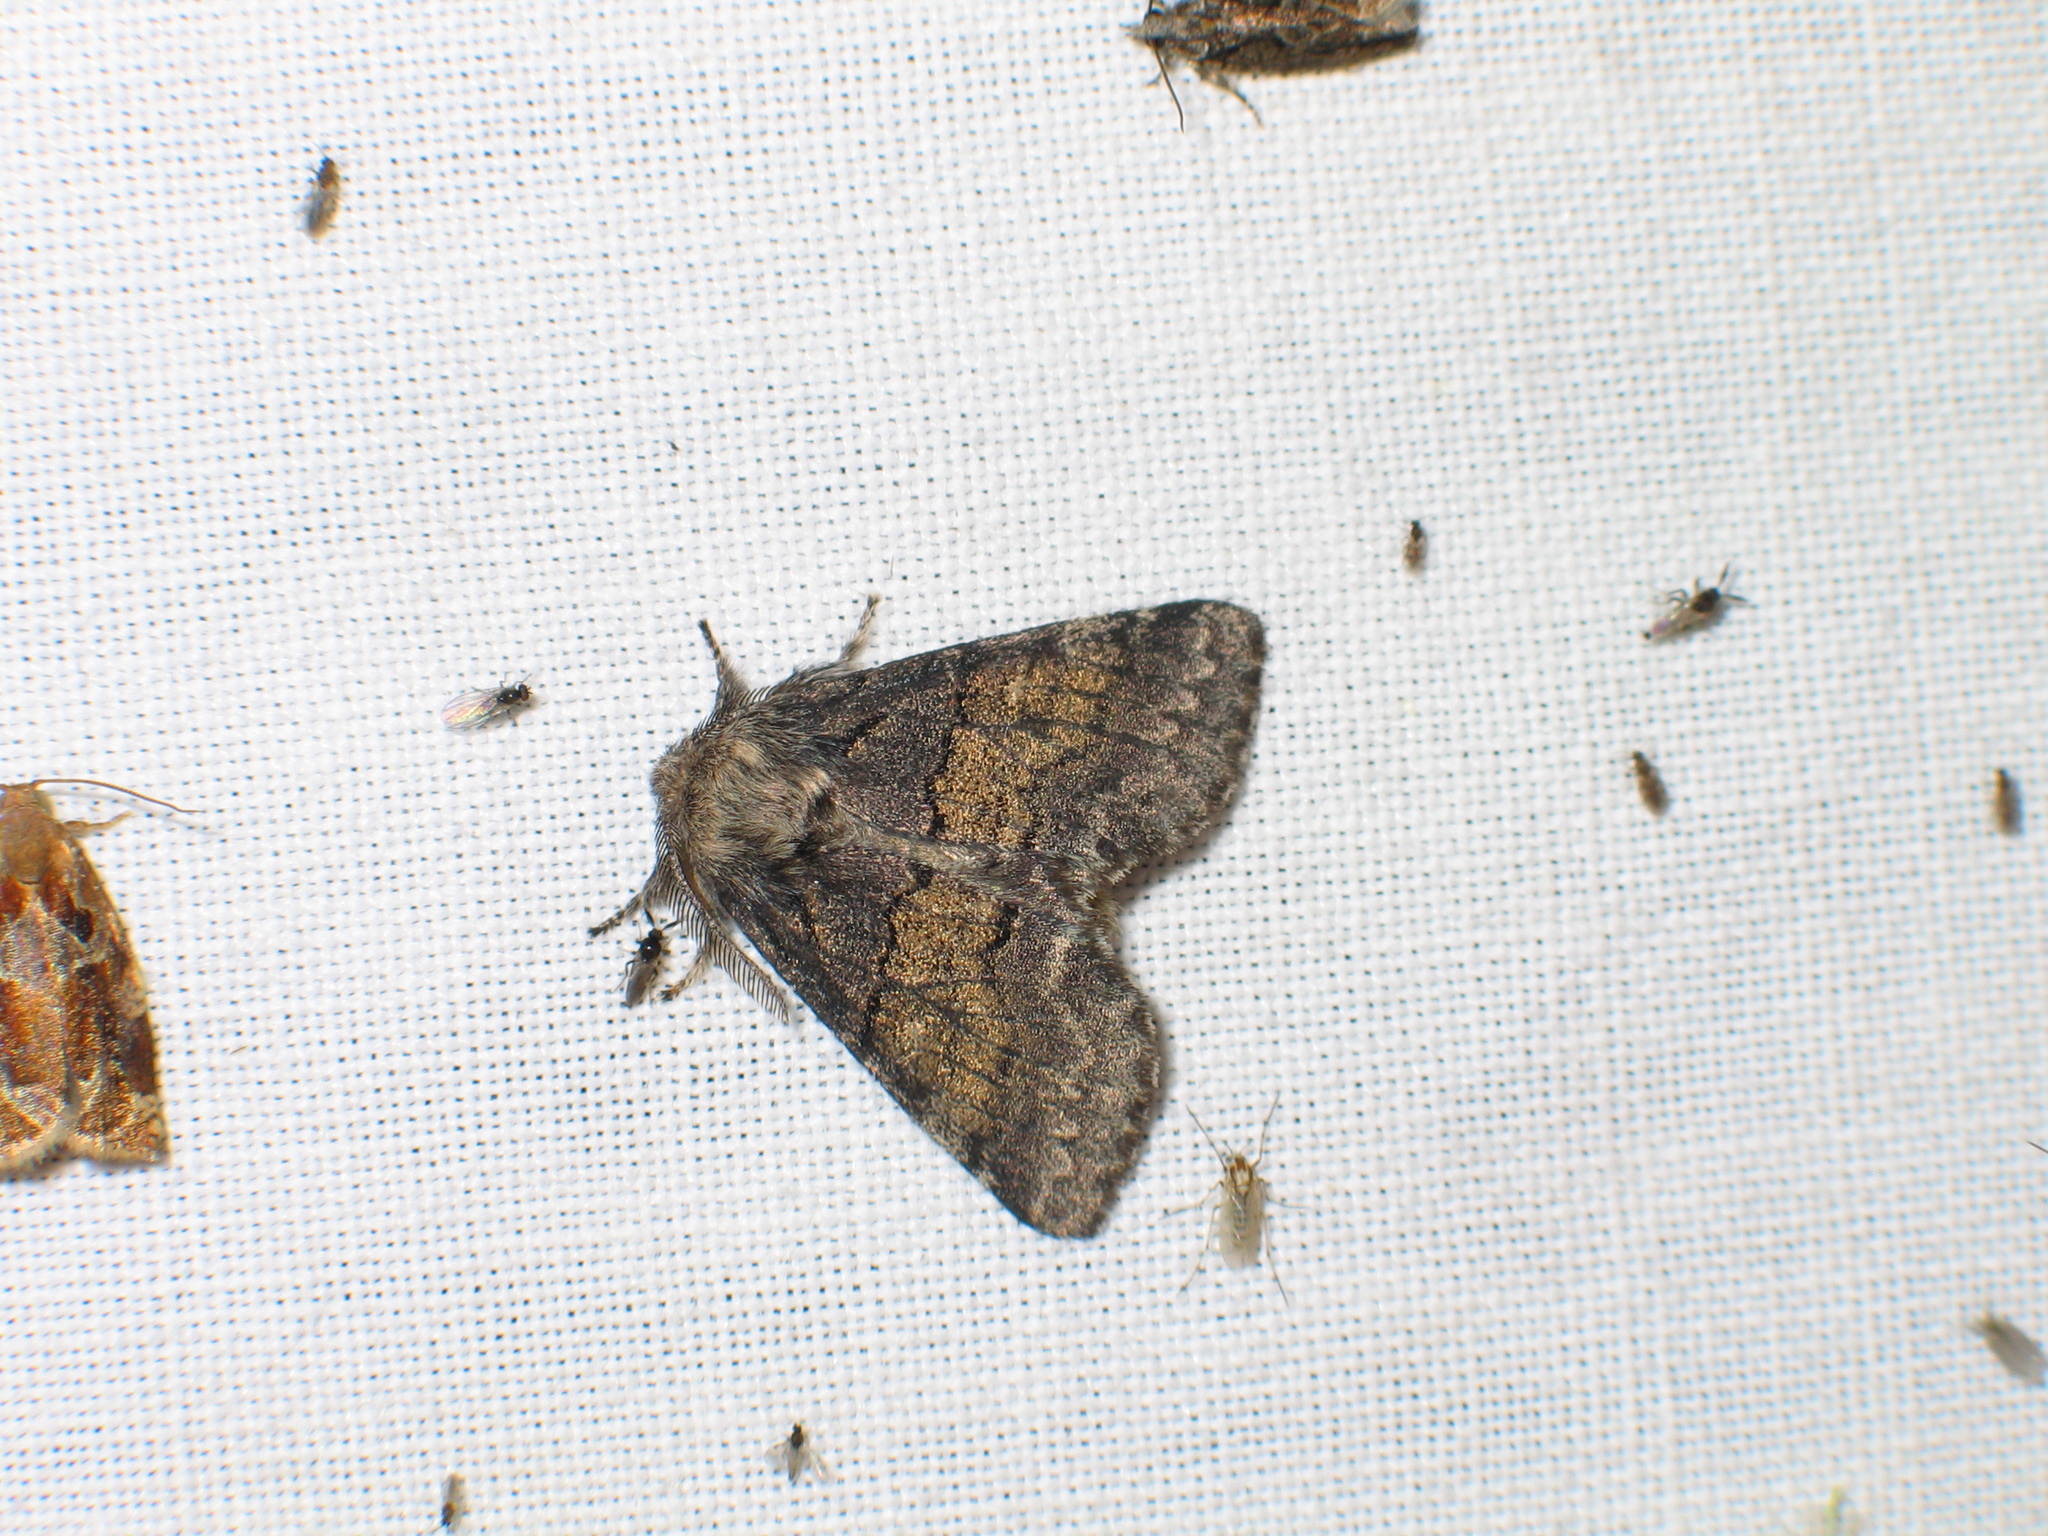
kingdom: Animalia
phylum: Arthropoda
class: Insecta
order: Lepidoptera
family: Notodontidae
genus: Gluphisia
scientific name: Gluphisia crenata
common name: Dusky marbled brown
